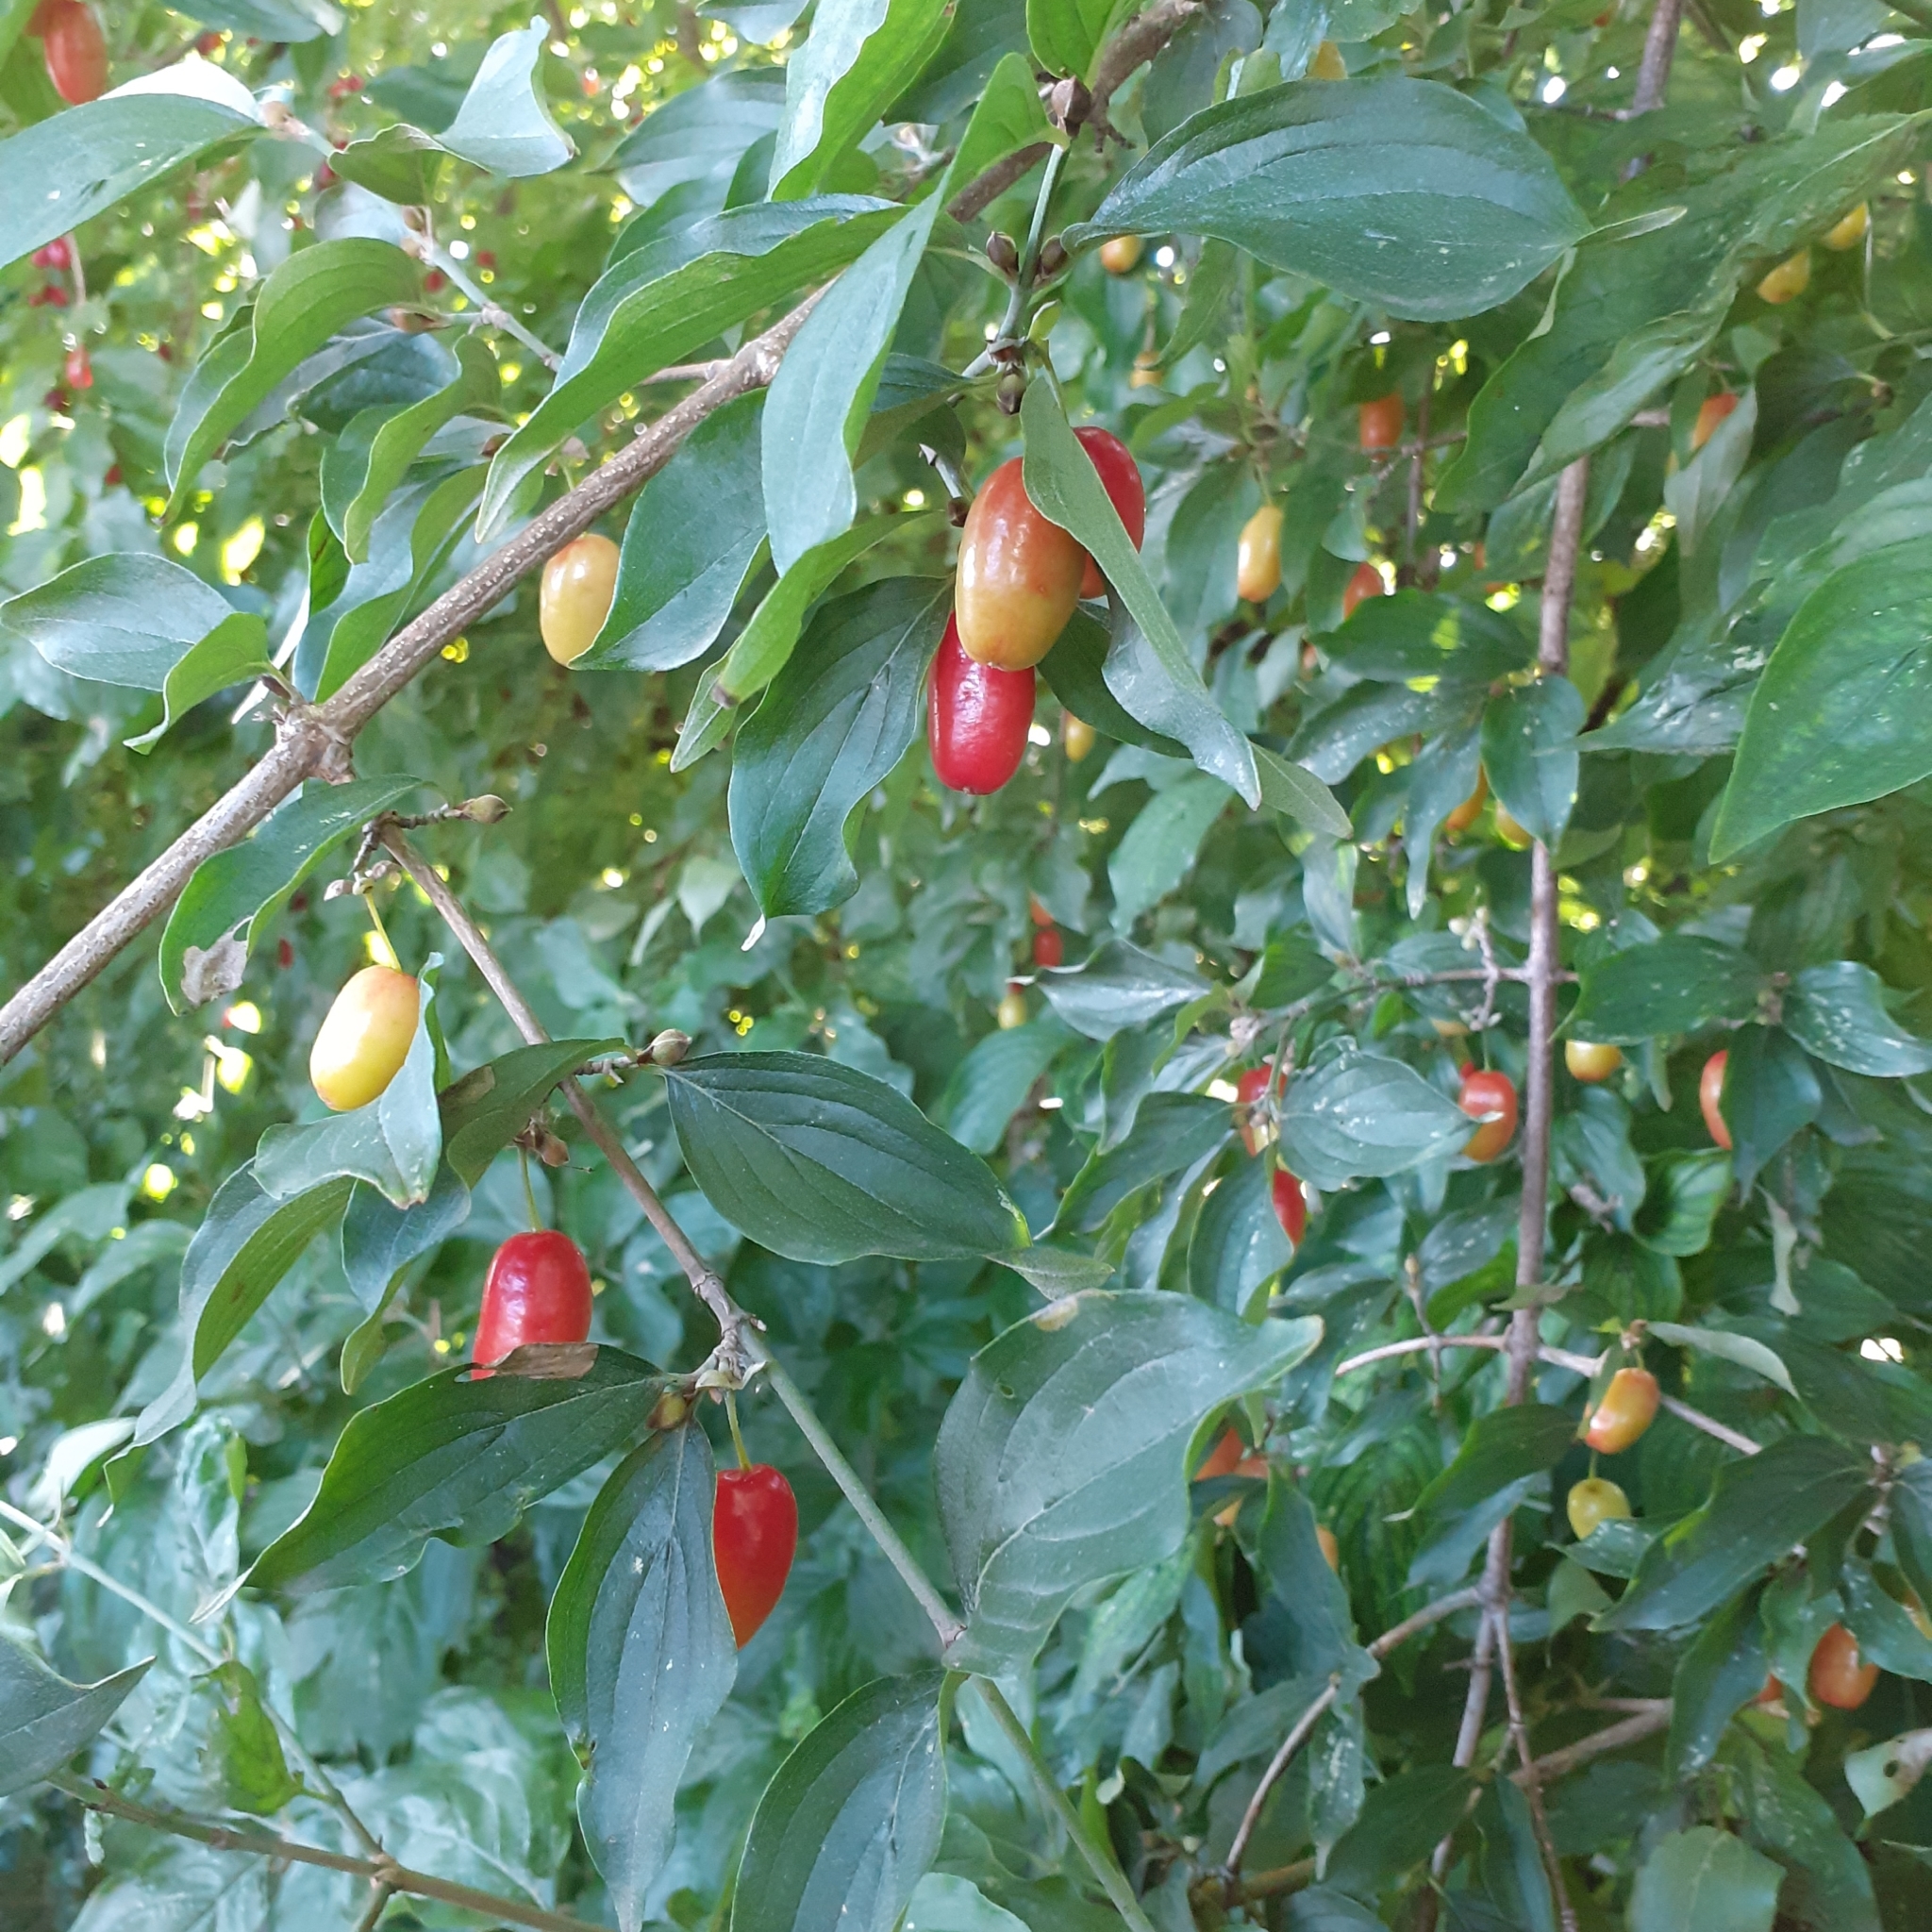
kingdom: Plantae
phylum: Tracheophyta
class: Magnoliopsida
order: Cornales
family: Cornaceae
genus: Cornus
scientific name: Cornus mas
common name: Cornelian-cherry
